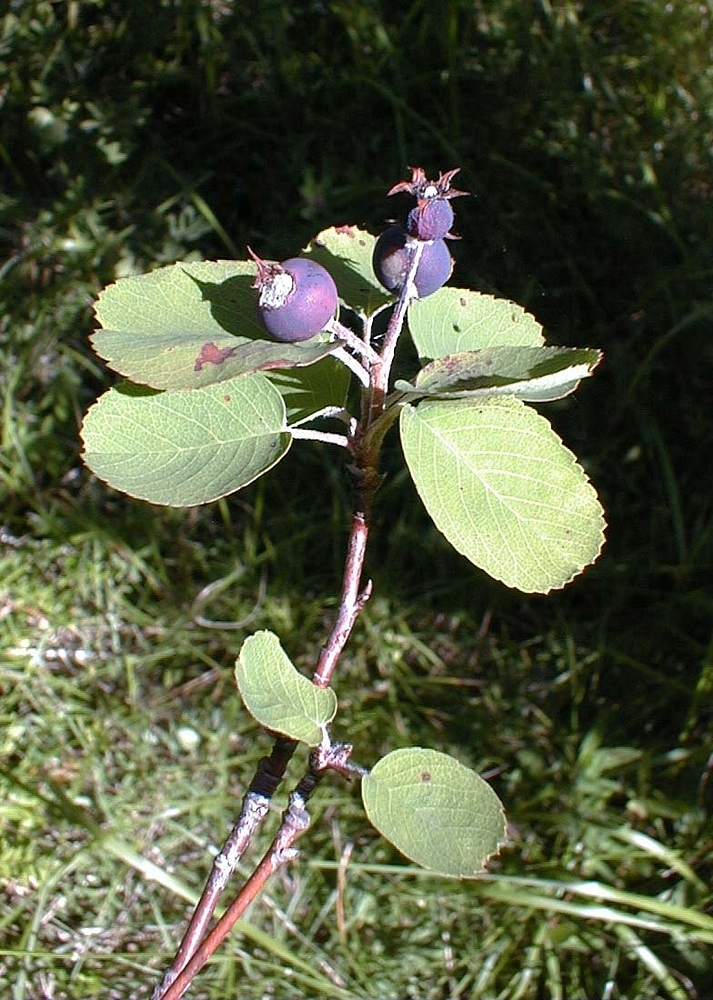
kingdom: Plantae
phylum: Tracheophyta
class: Magnoliopsida
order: Rosales
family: Rosaceae
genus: Amelanchier
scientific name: Amelanchier ovalis
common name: Serviceberry
